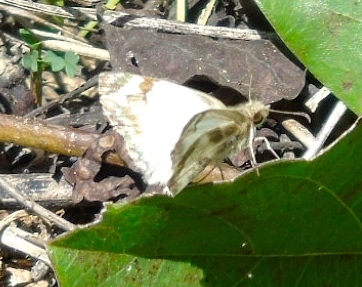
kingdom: Animalia
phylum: Arthropoda
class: Insecta
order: Lepidoptera
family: Hesperiidae
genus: Heliopetes
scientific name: Heliopetes macaira
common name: Turk's-cap white-skipper
